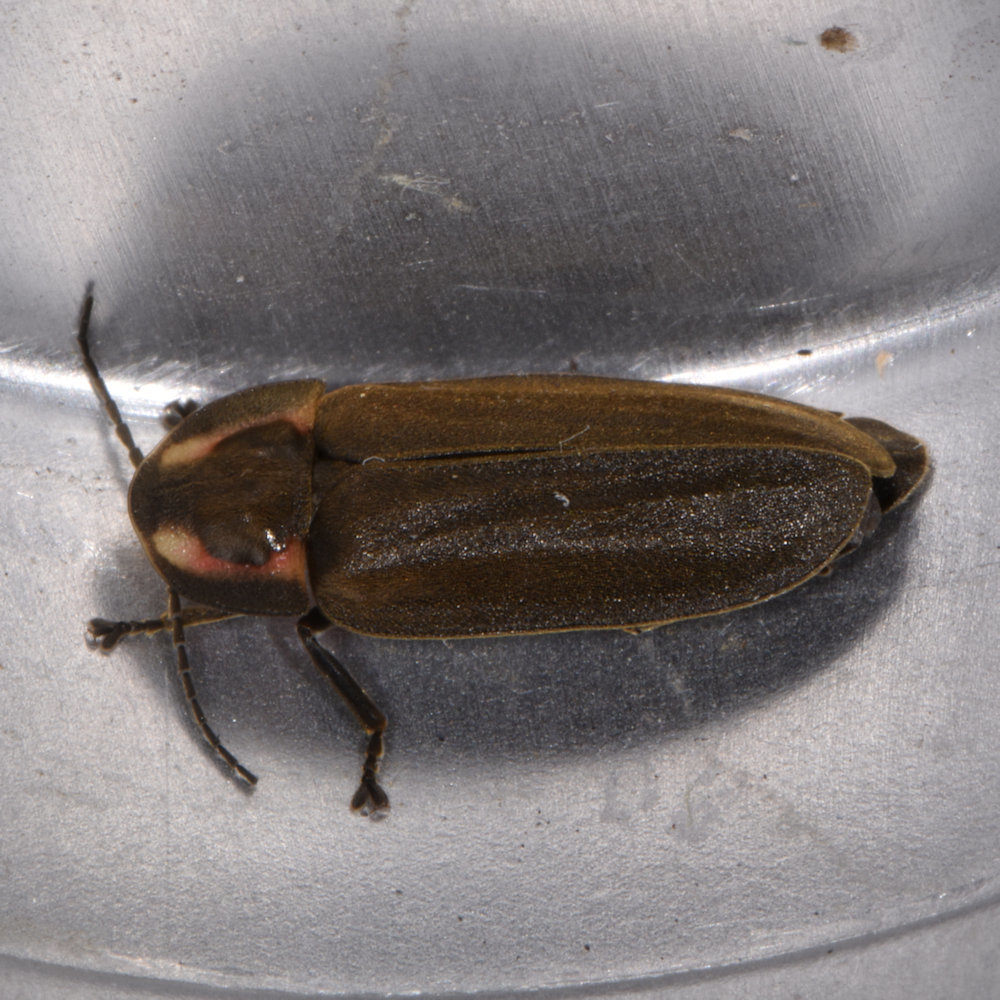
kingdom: Animalia
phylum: Arthropoda
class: Insecta
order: Coleoptera
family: Lampyridae
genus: Photinus
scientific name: Photinus corrusca
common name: Winter firefly
